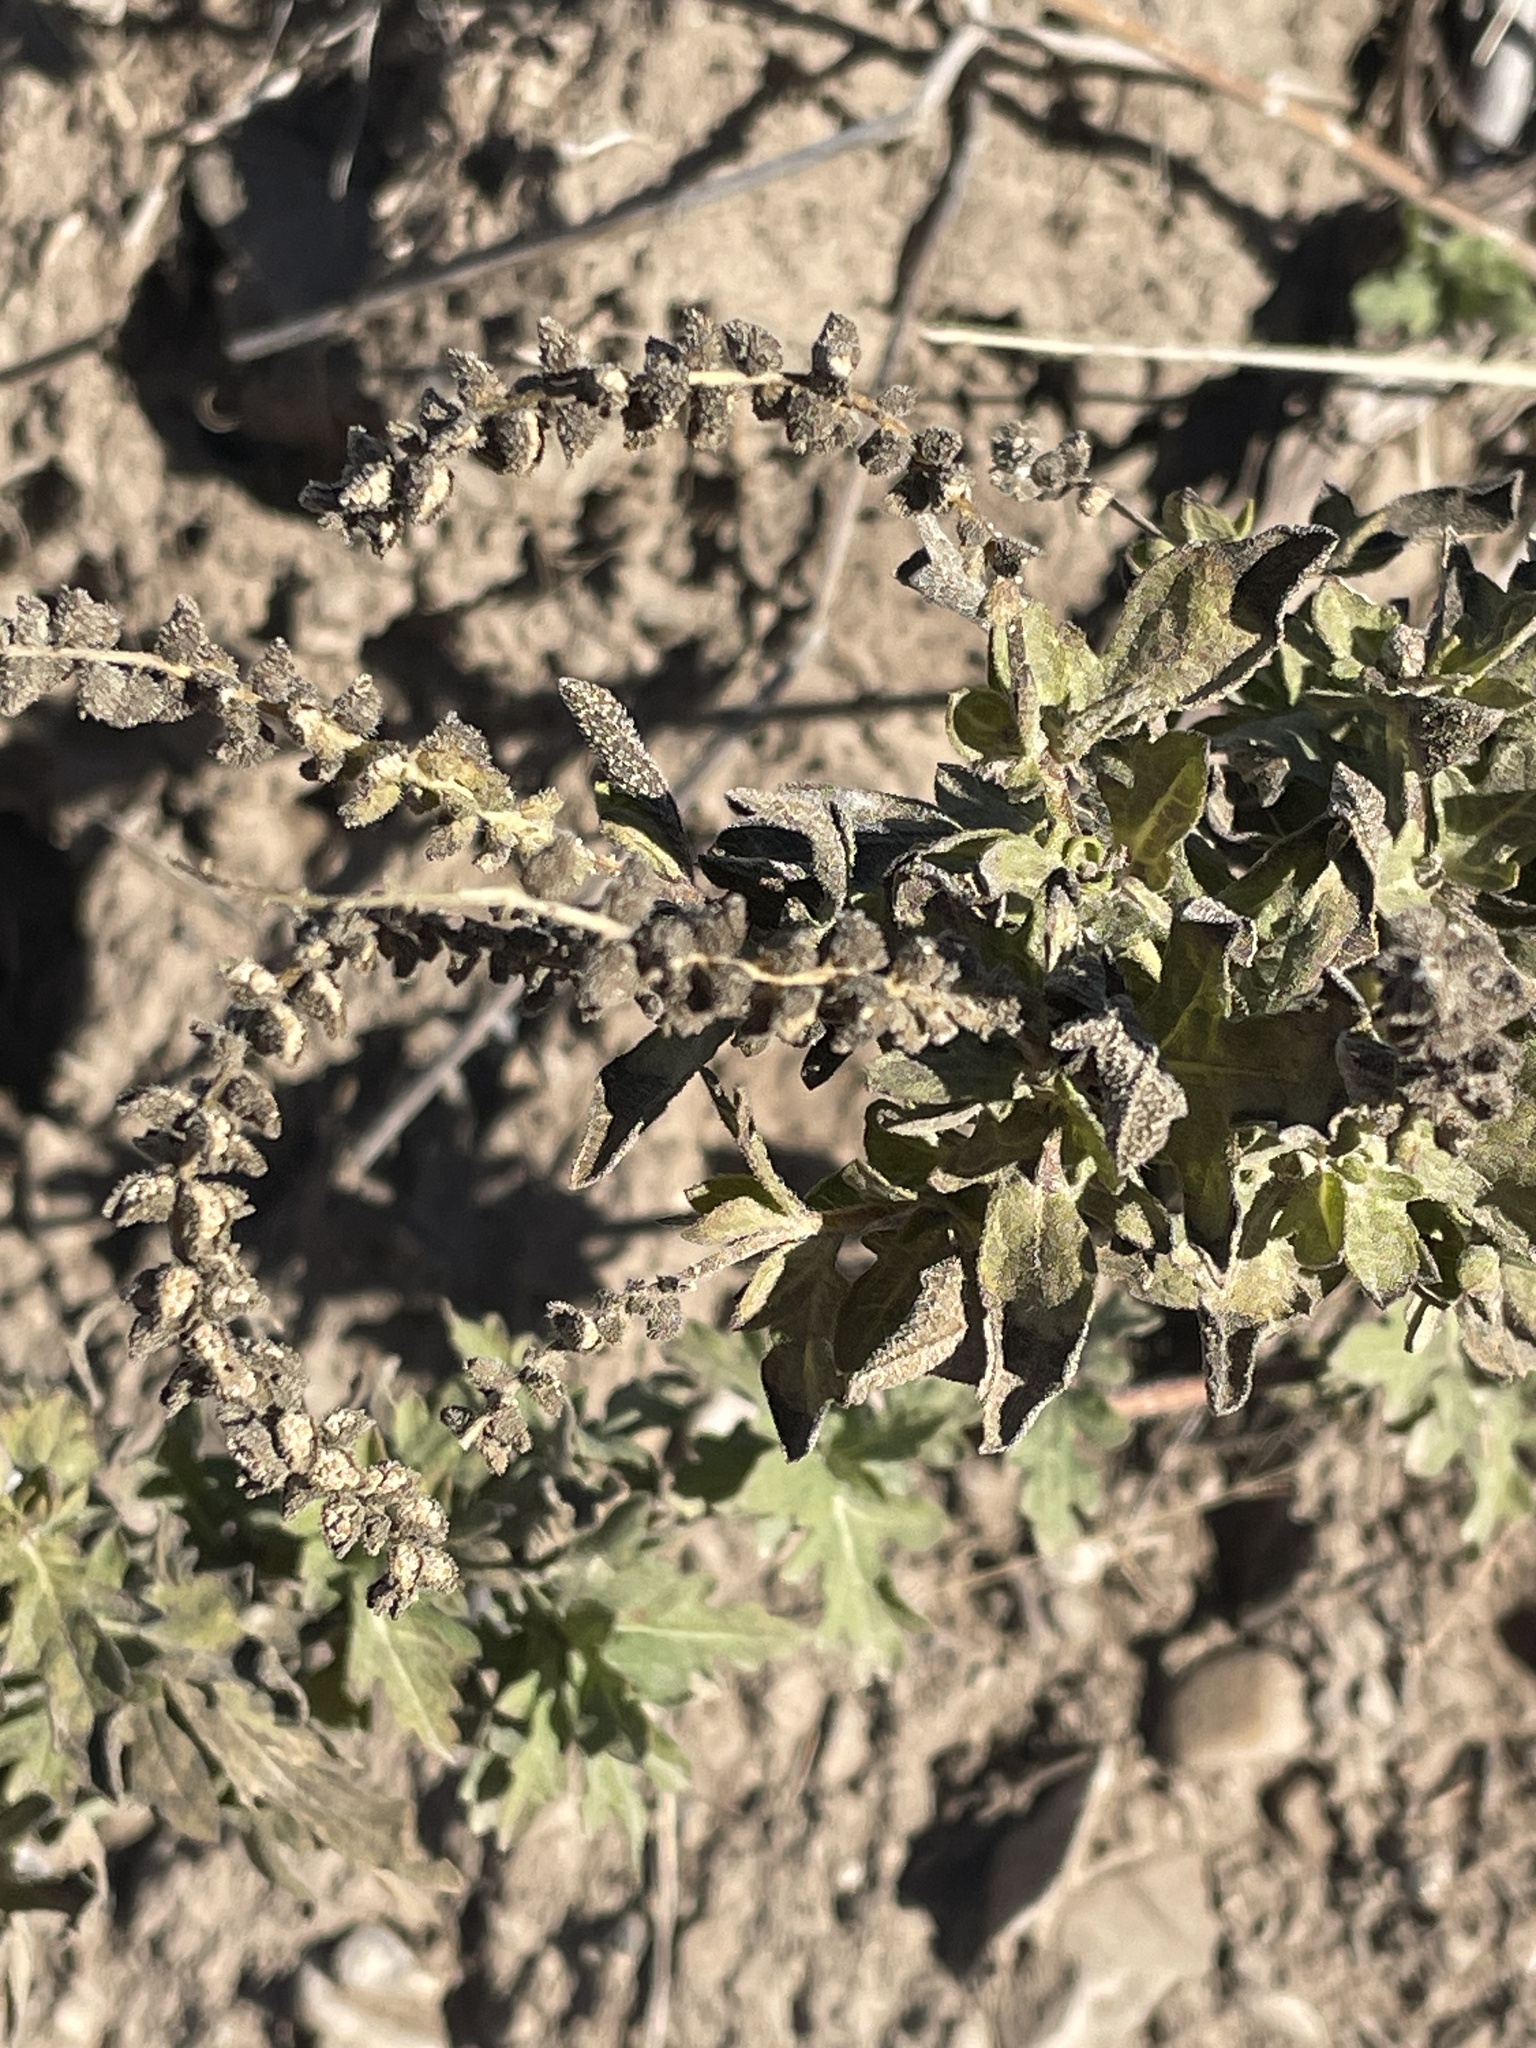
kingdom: Plantae
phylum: Tracheophyta
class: Magnoliopsida
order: Asterales
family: Asteraceae
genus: Ambrosia
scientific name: Ambrosia psilostachya
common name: Perennial ragweed
